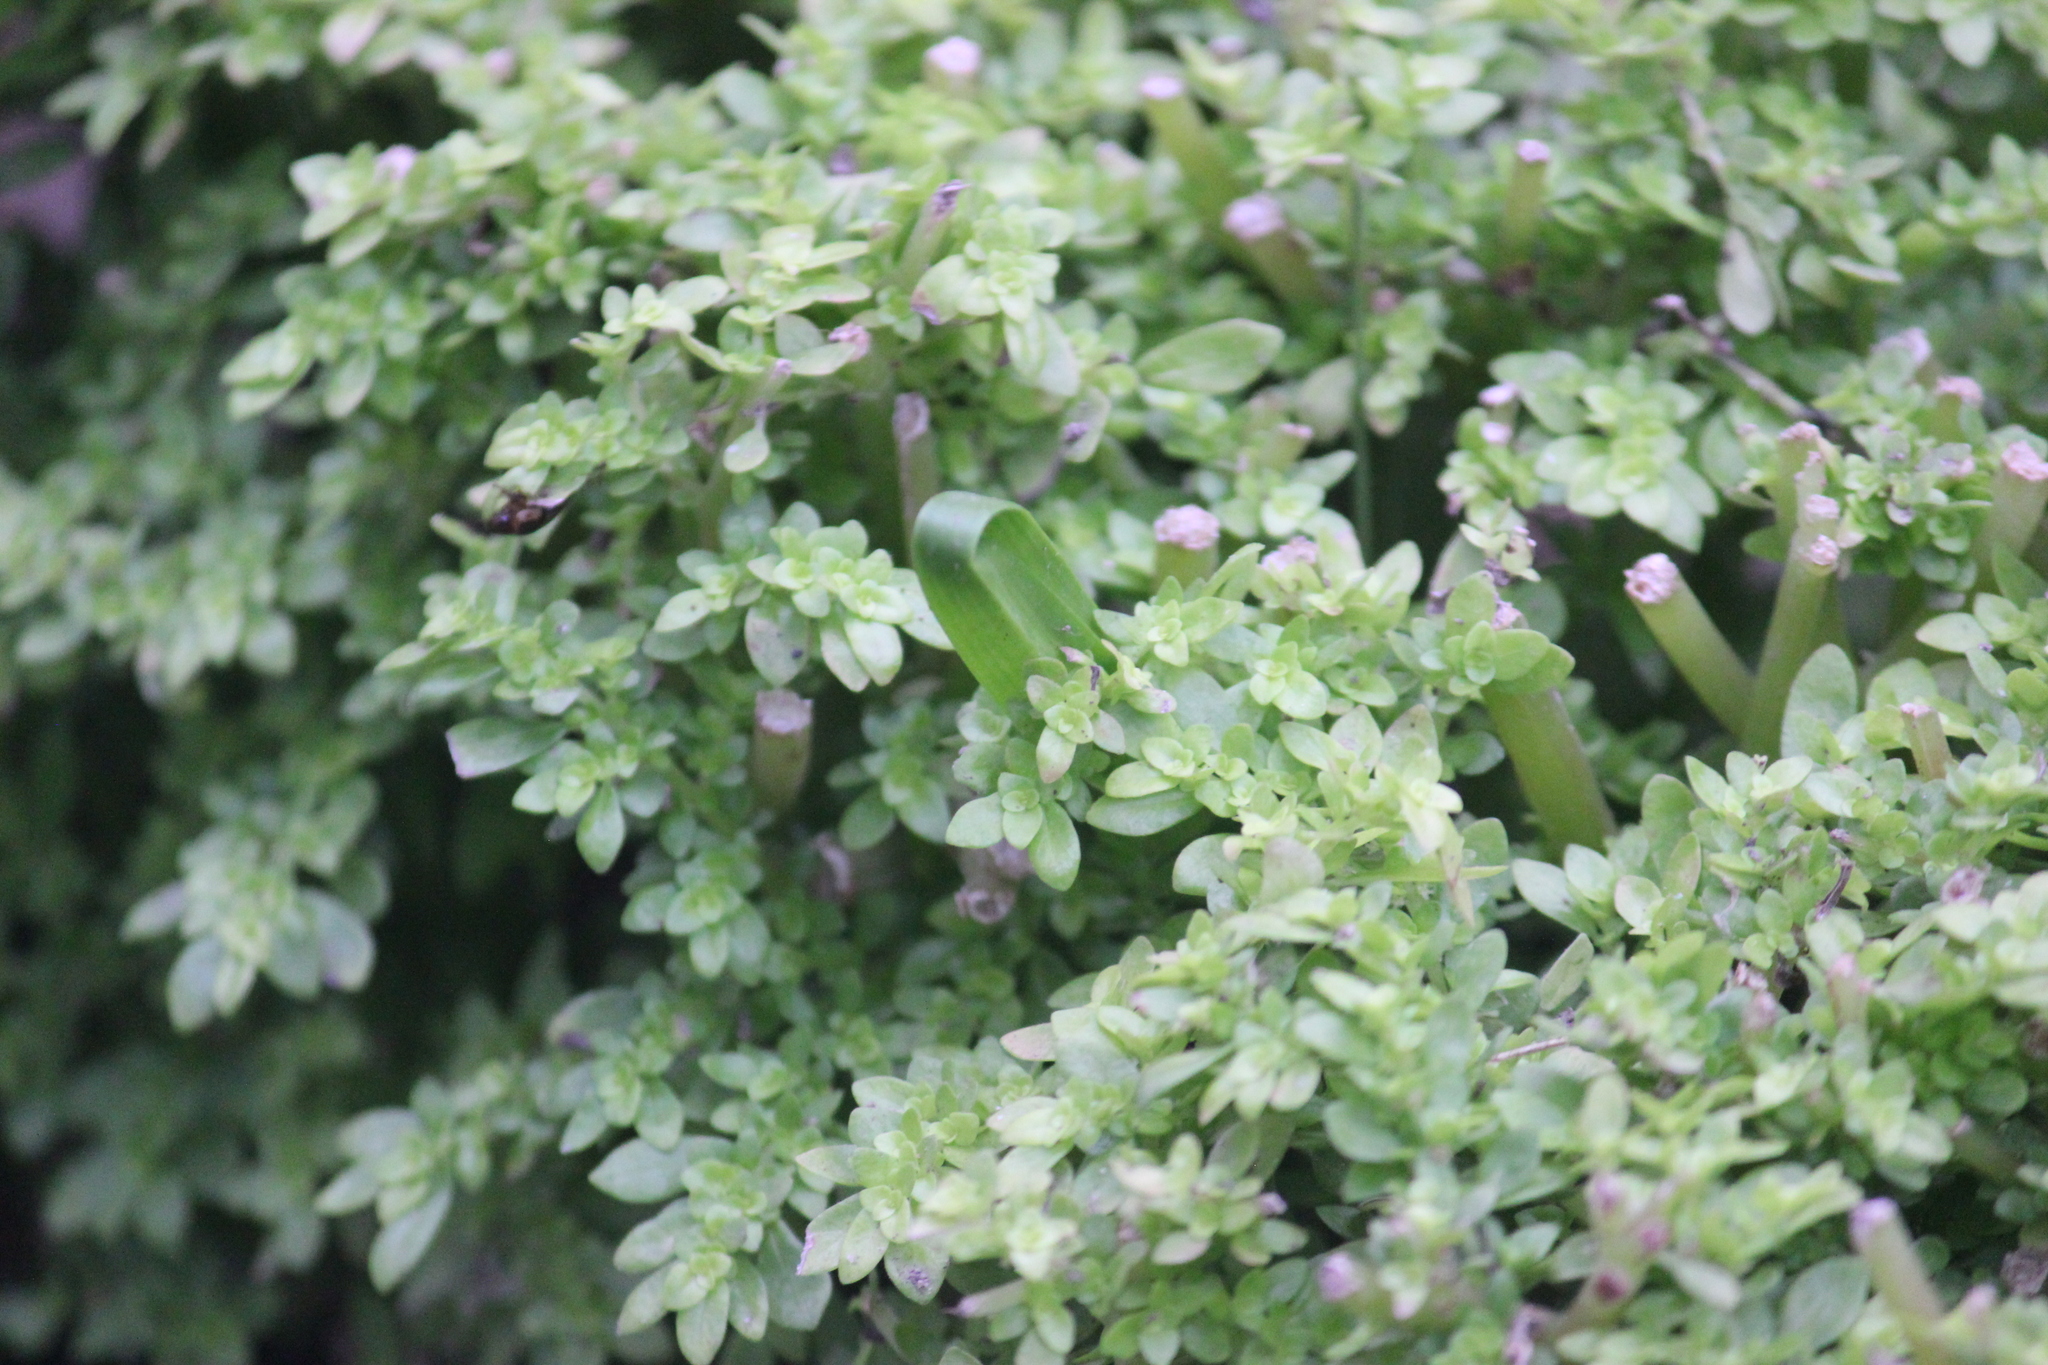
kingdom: Plantae
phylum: Tracheophyta
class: Magnoliopsida
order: Rosales
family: Urticaceae
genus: Pilea
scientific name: Pilea microphylla
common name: Artillery-plant
